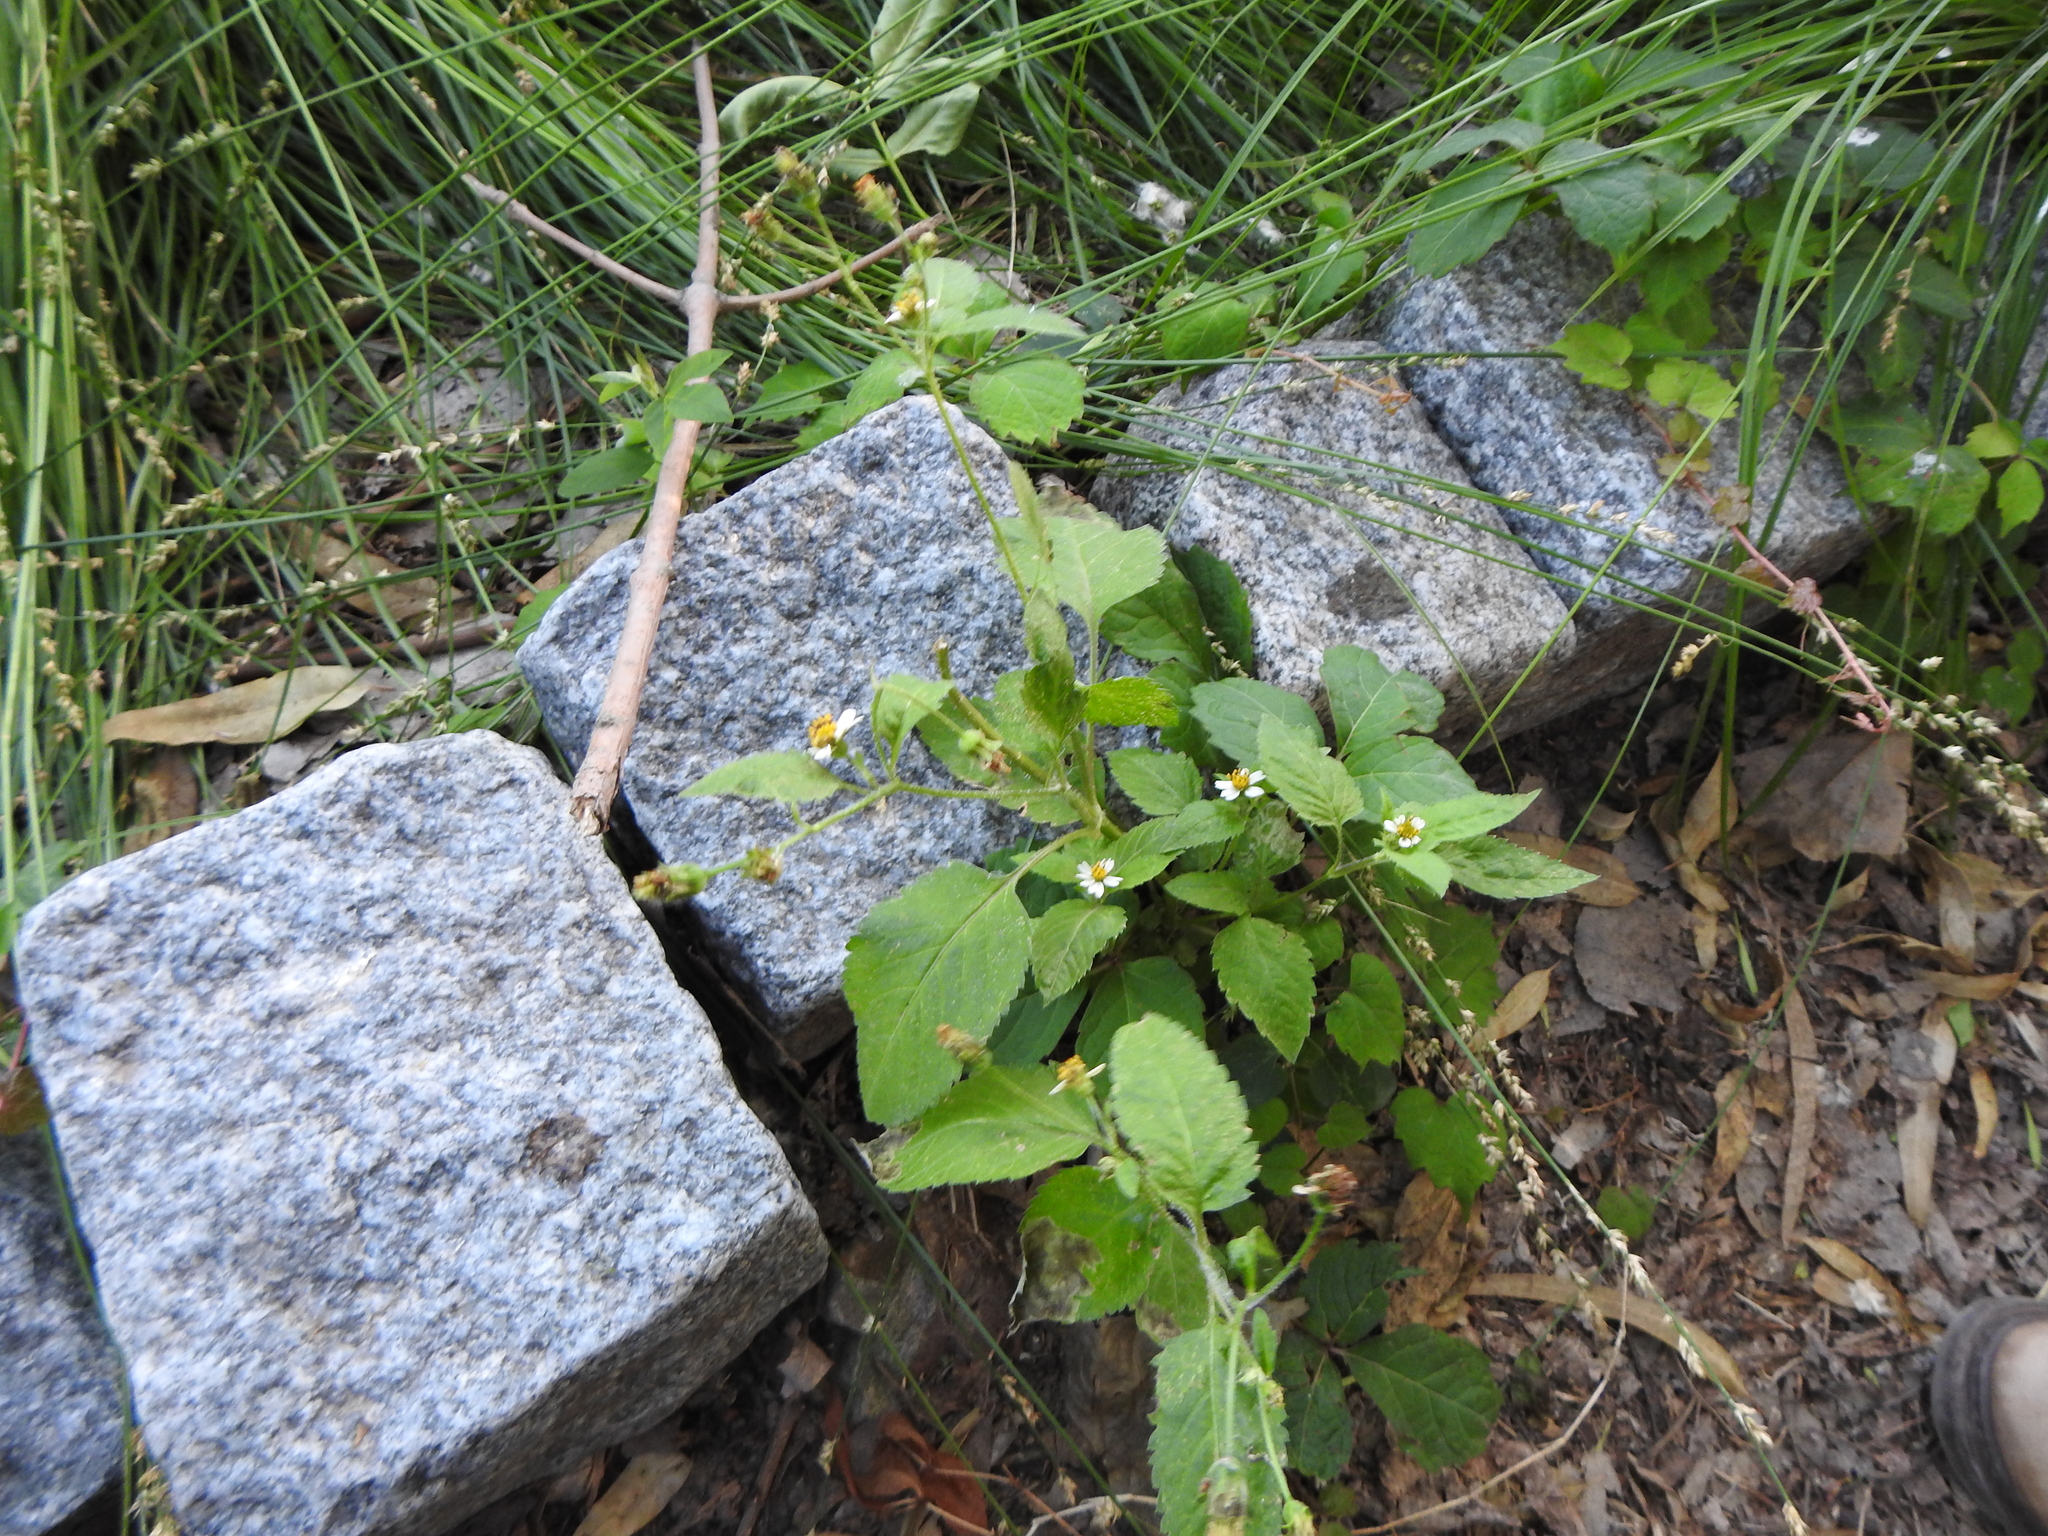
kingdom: Plantae
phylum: Tracheophyta
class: Magnoliopsida
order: Asterales
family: Asteraceae
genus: Bidens
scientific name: Bidens pilosa
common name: Black-jack
